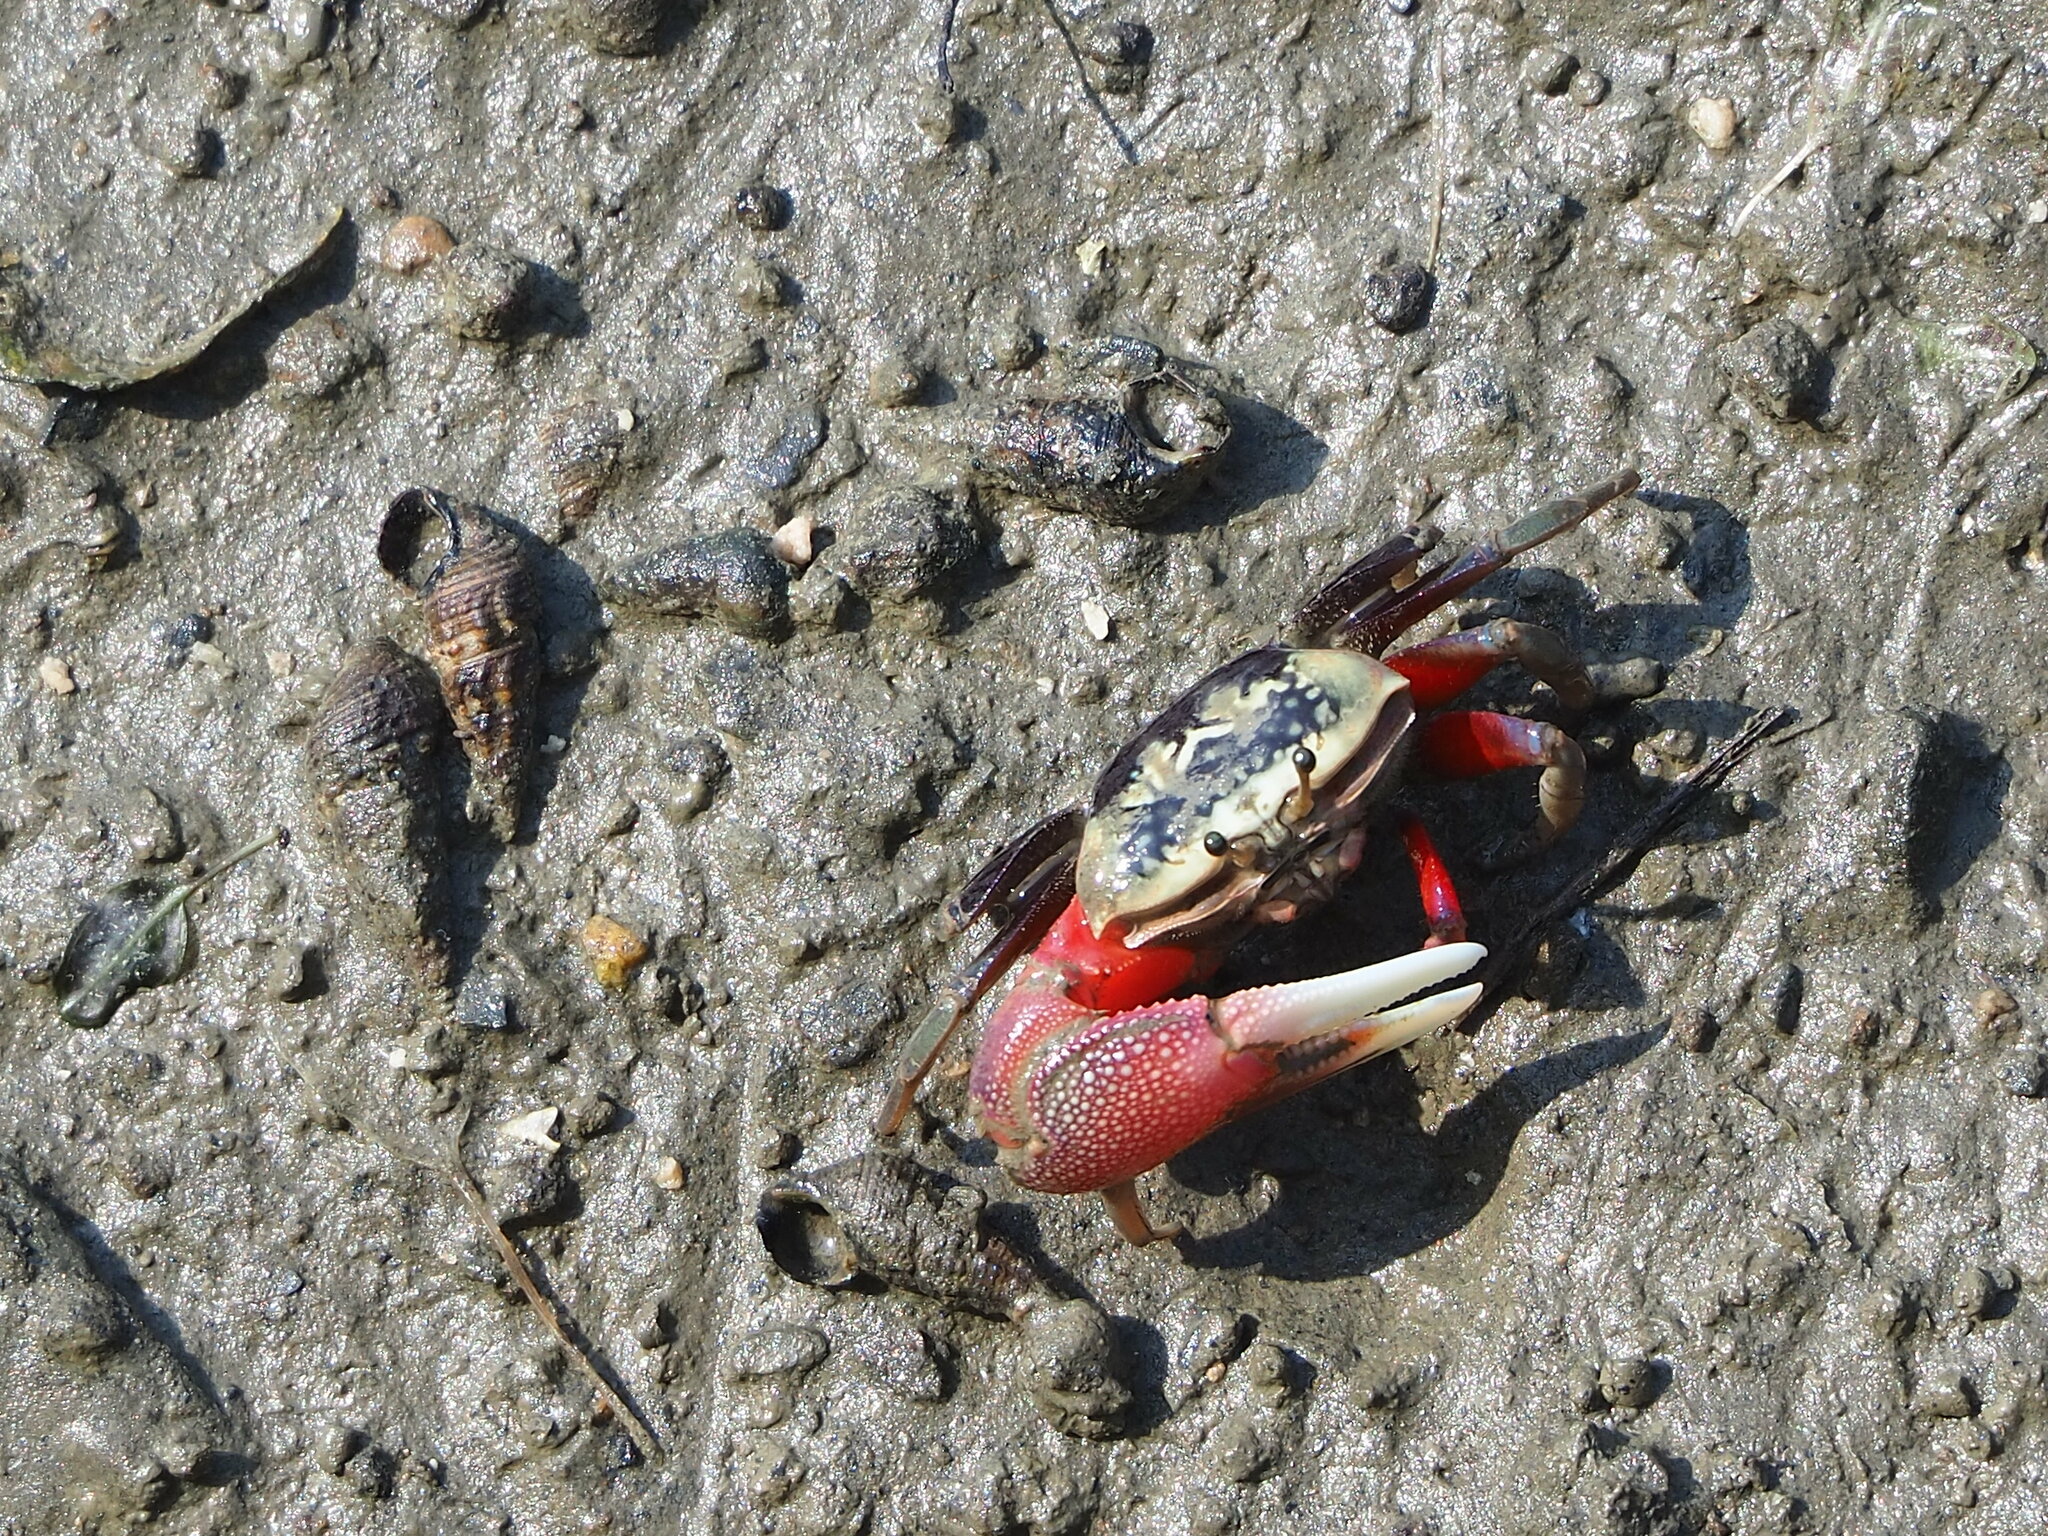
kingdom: Animalia
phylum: Arthropoda
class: Malacostraca
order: Decapoda
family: Ocypodidae
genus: Tubuca
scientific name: Tubuca arcuata
